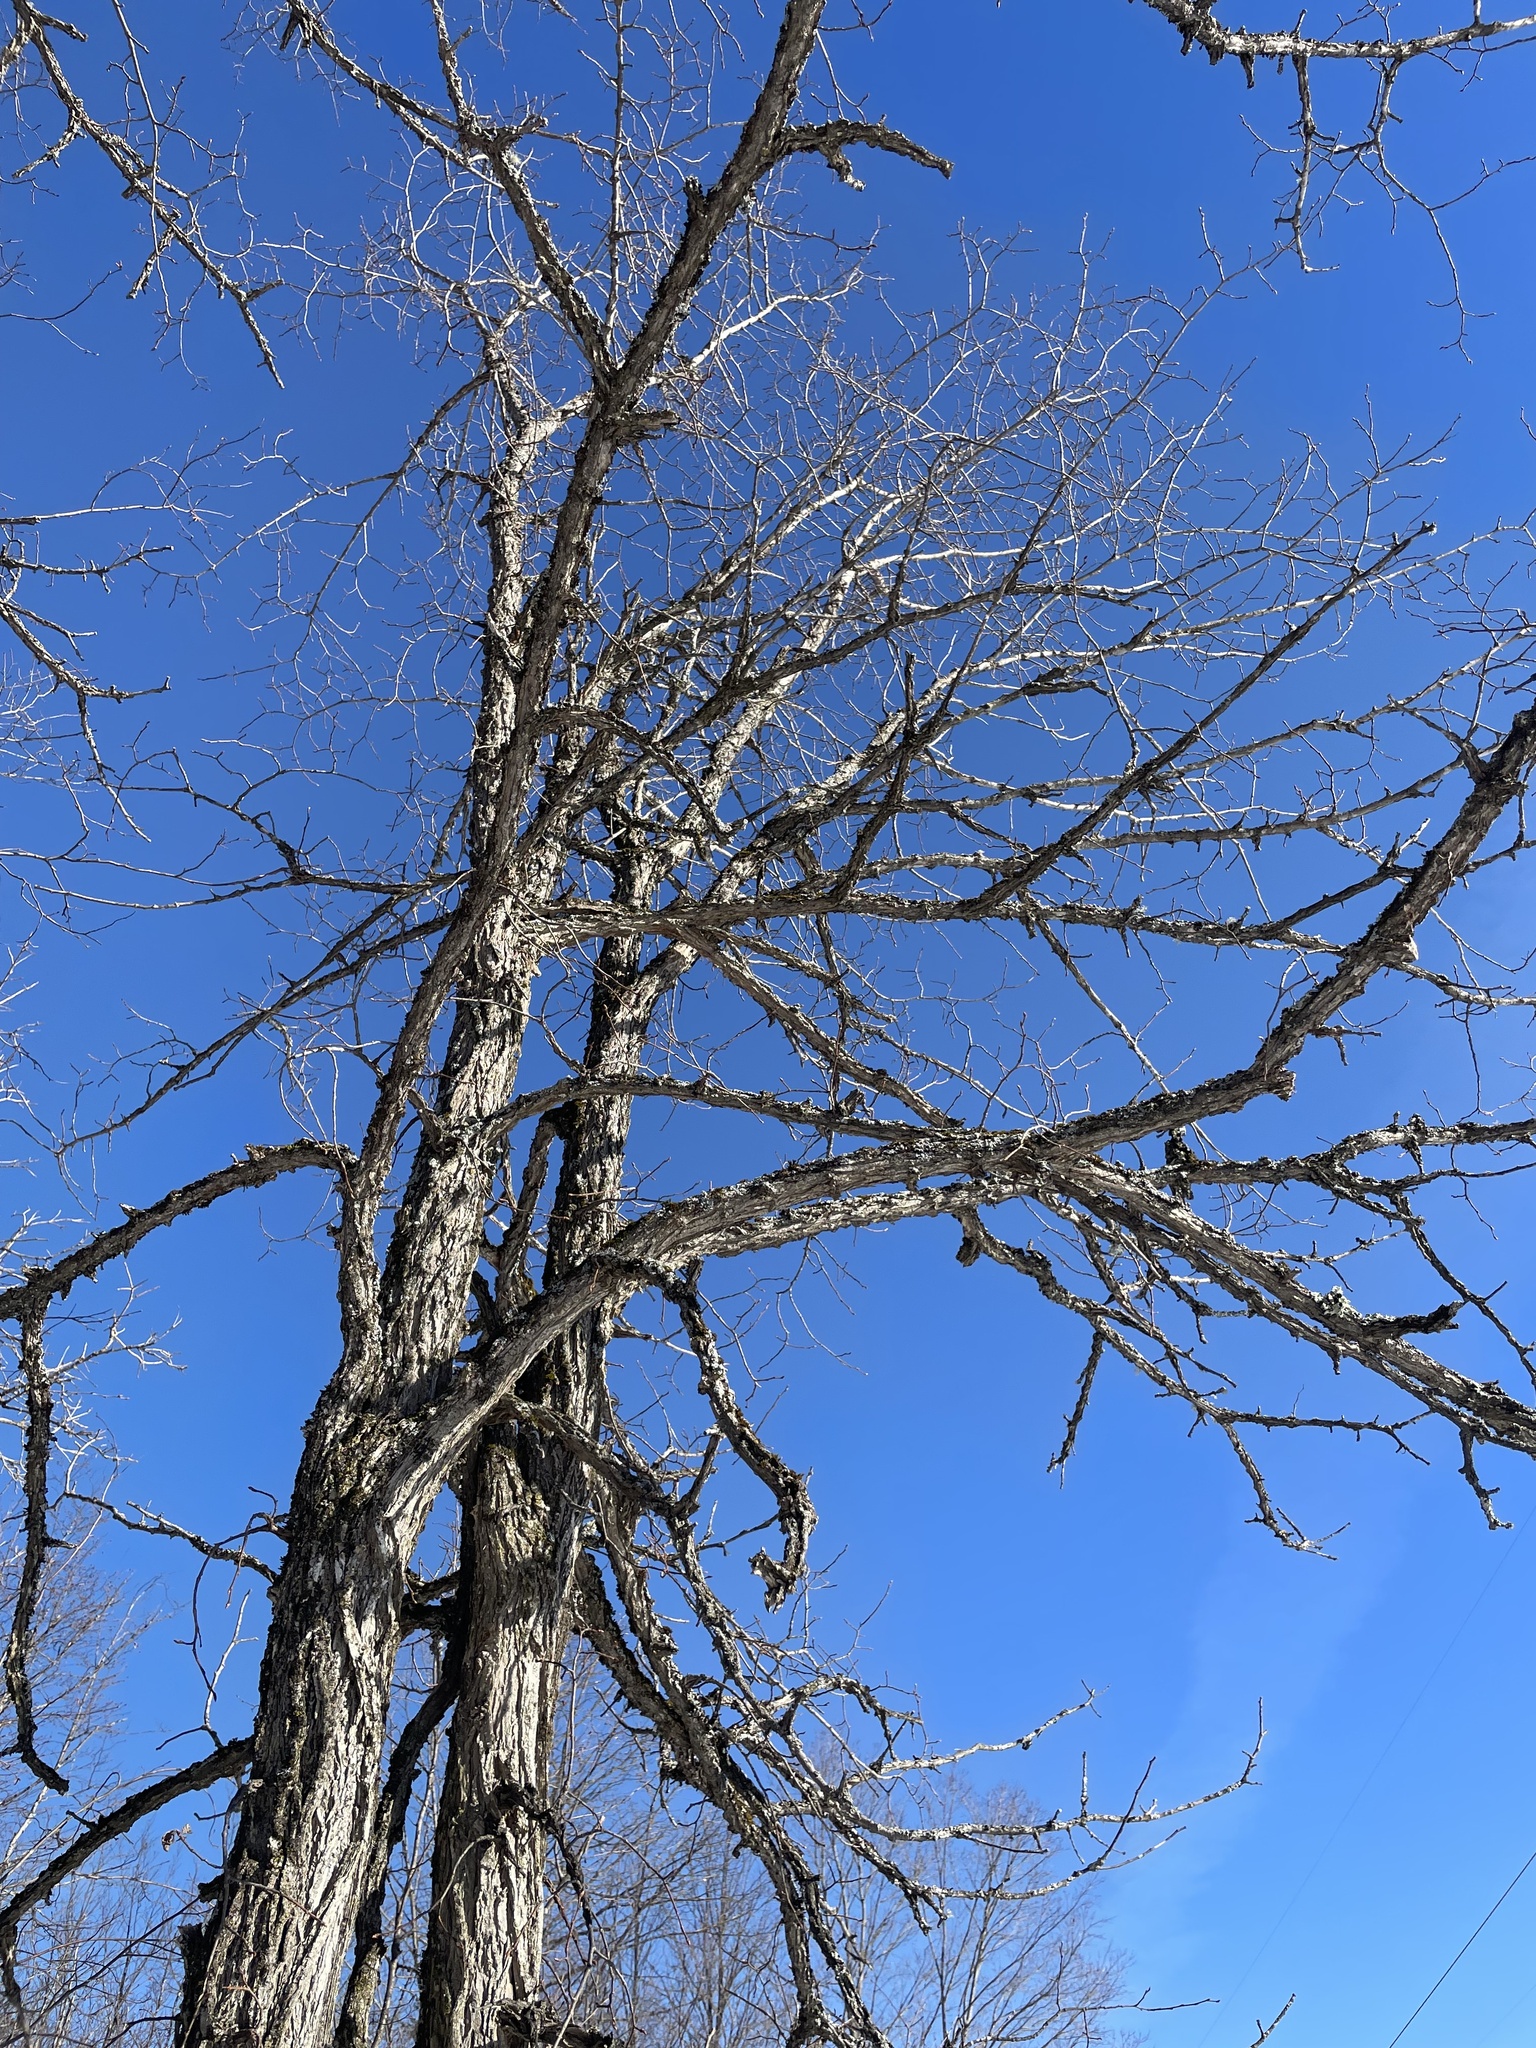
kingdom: Plantae
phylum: Tracheophyta
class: Magnoliopsida
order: Rosales
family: Ulmaceae
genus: Ulmus
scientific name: Ulmus thomasii
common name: Rock elm
